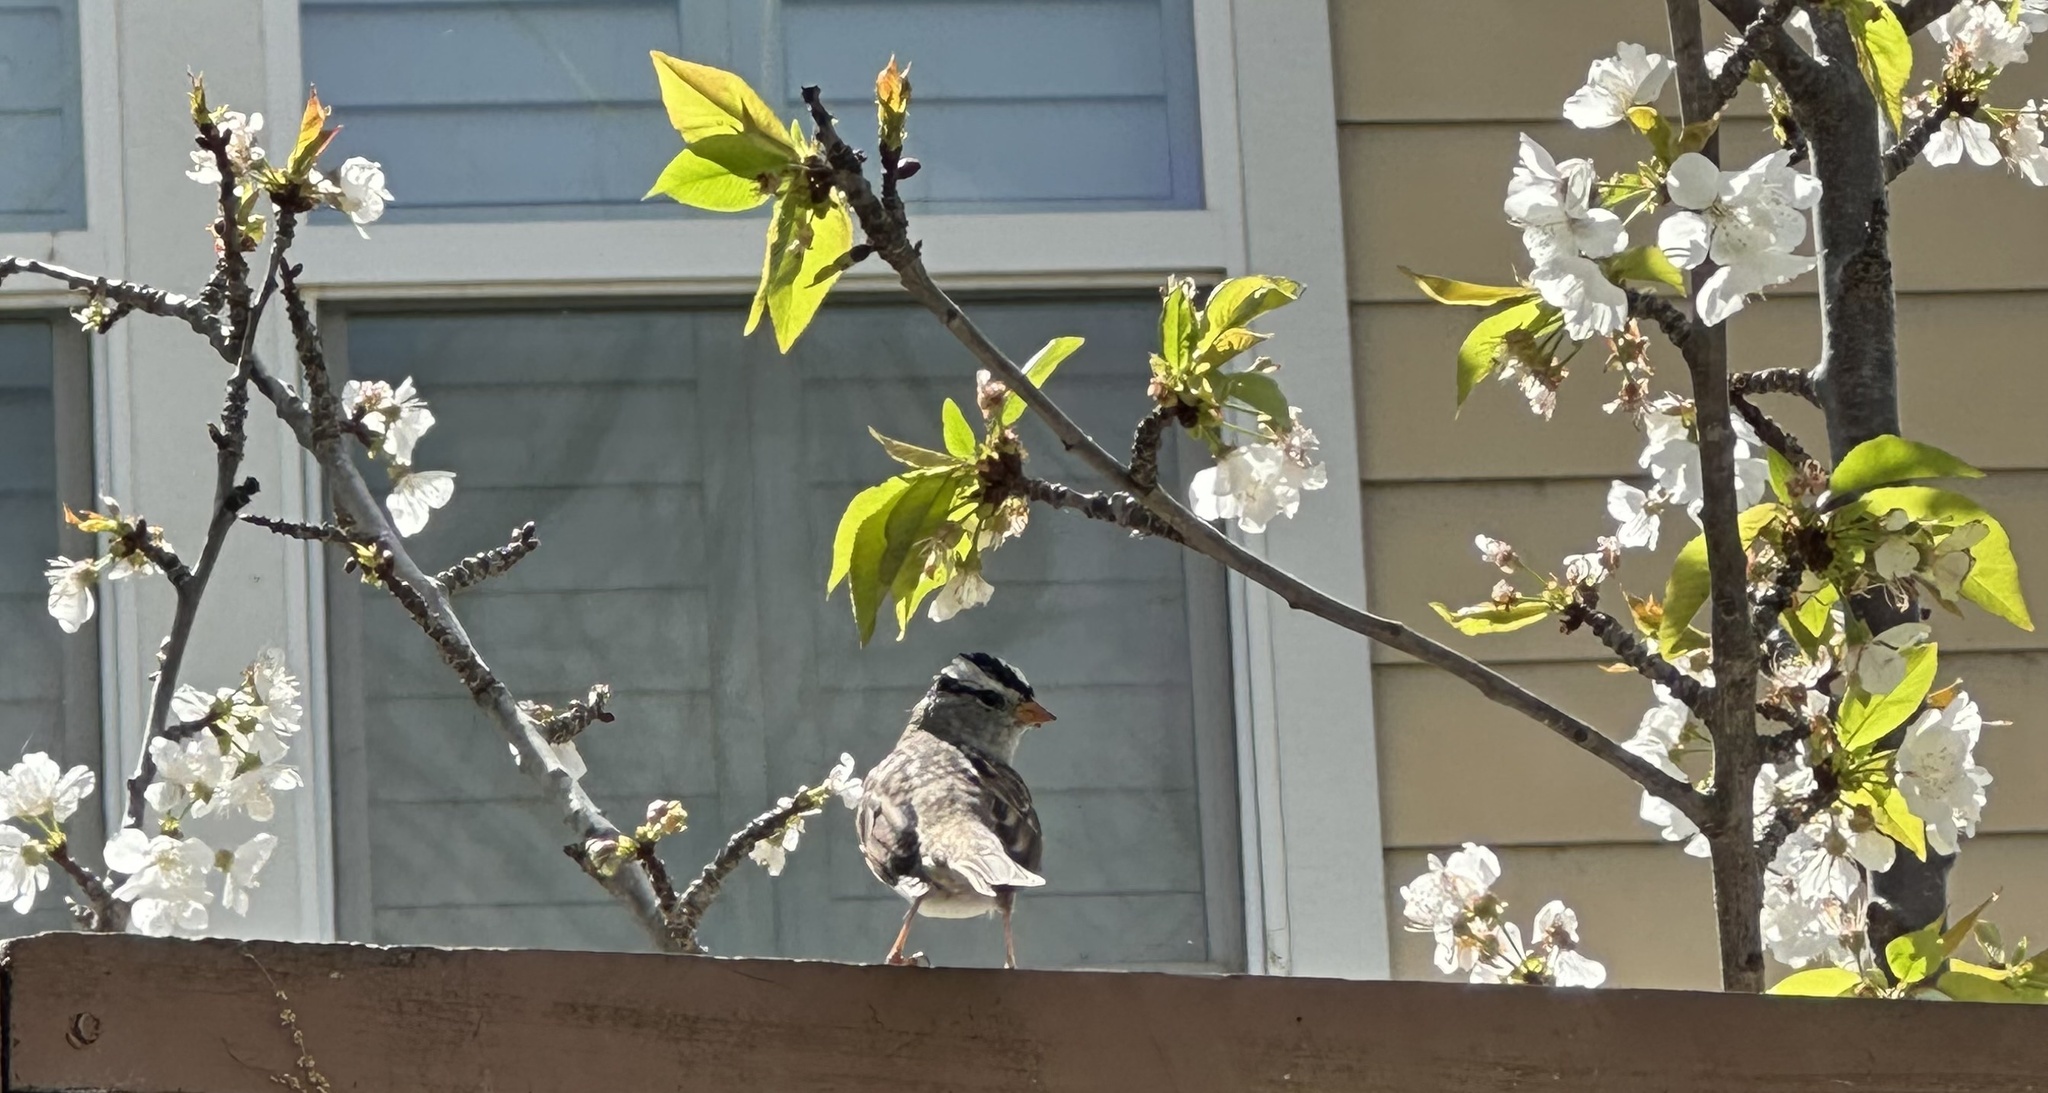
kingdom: Animalia
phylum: Chordata
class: Aves
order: Passeriformes
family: Passerellidae
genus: Zonotrichia
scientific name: Zonotrichia leucophrys
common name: White-crowned sparrow
